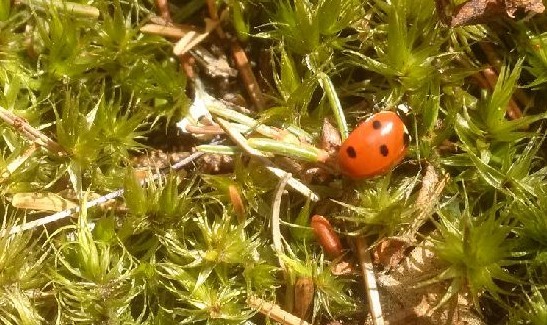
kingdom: Animalia
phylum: Arthropoda
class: Insecta
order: Coleoptera
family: Coccinellidae
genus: Coccinella
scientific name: Coccinella septempunctata
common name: Sevenspotted lady beetle
